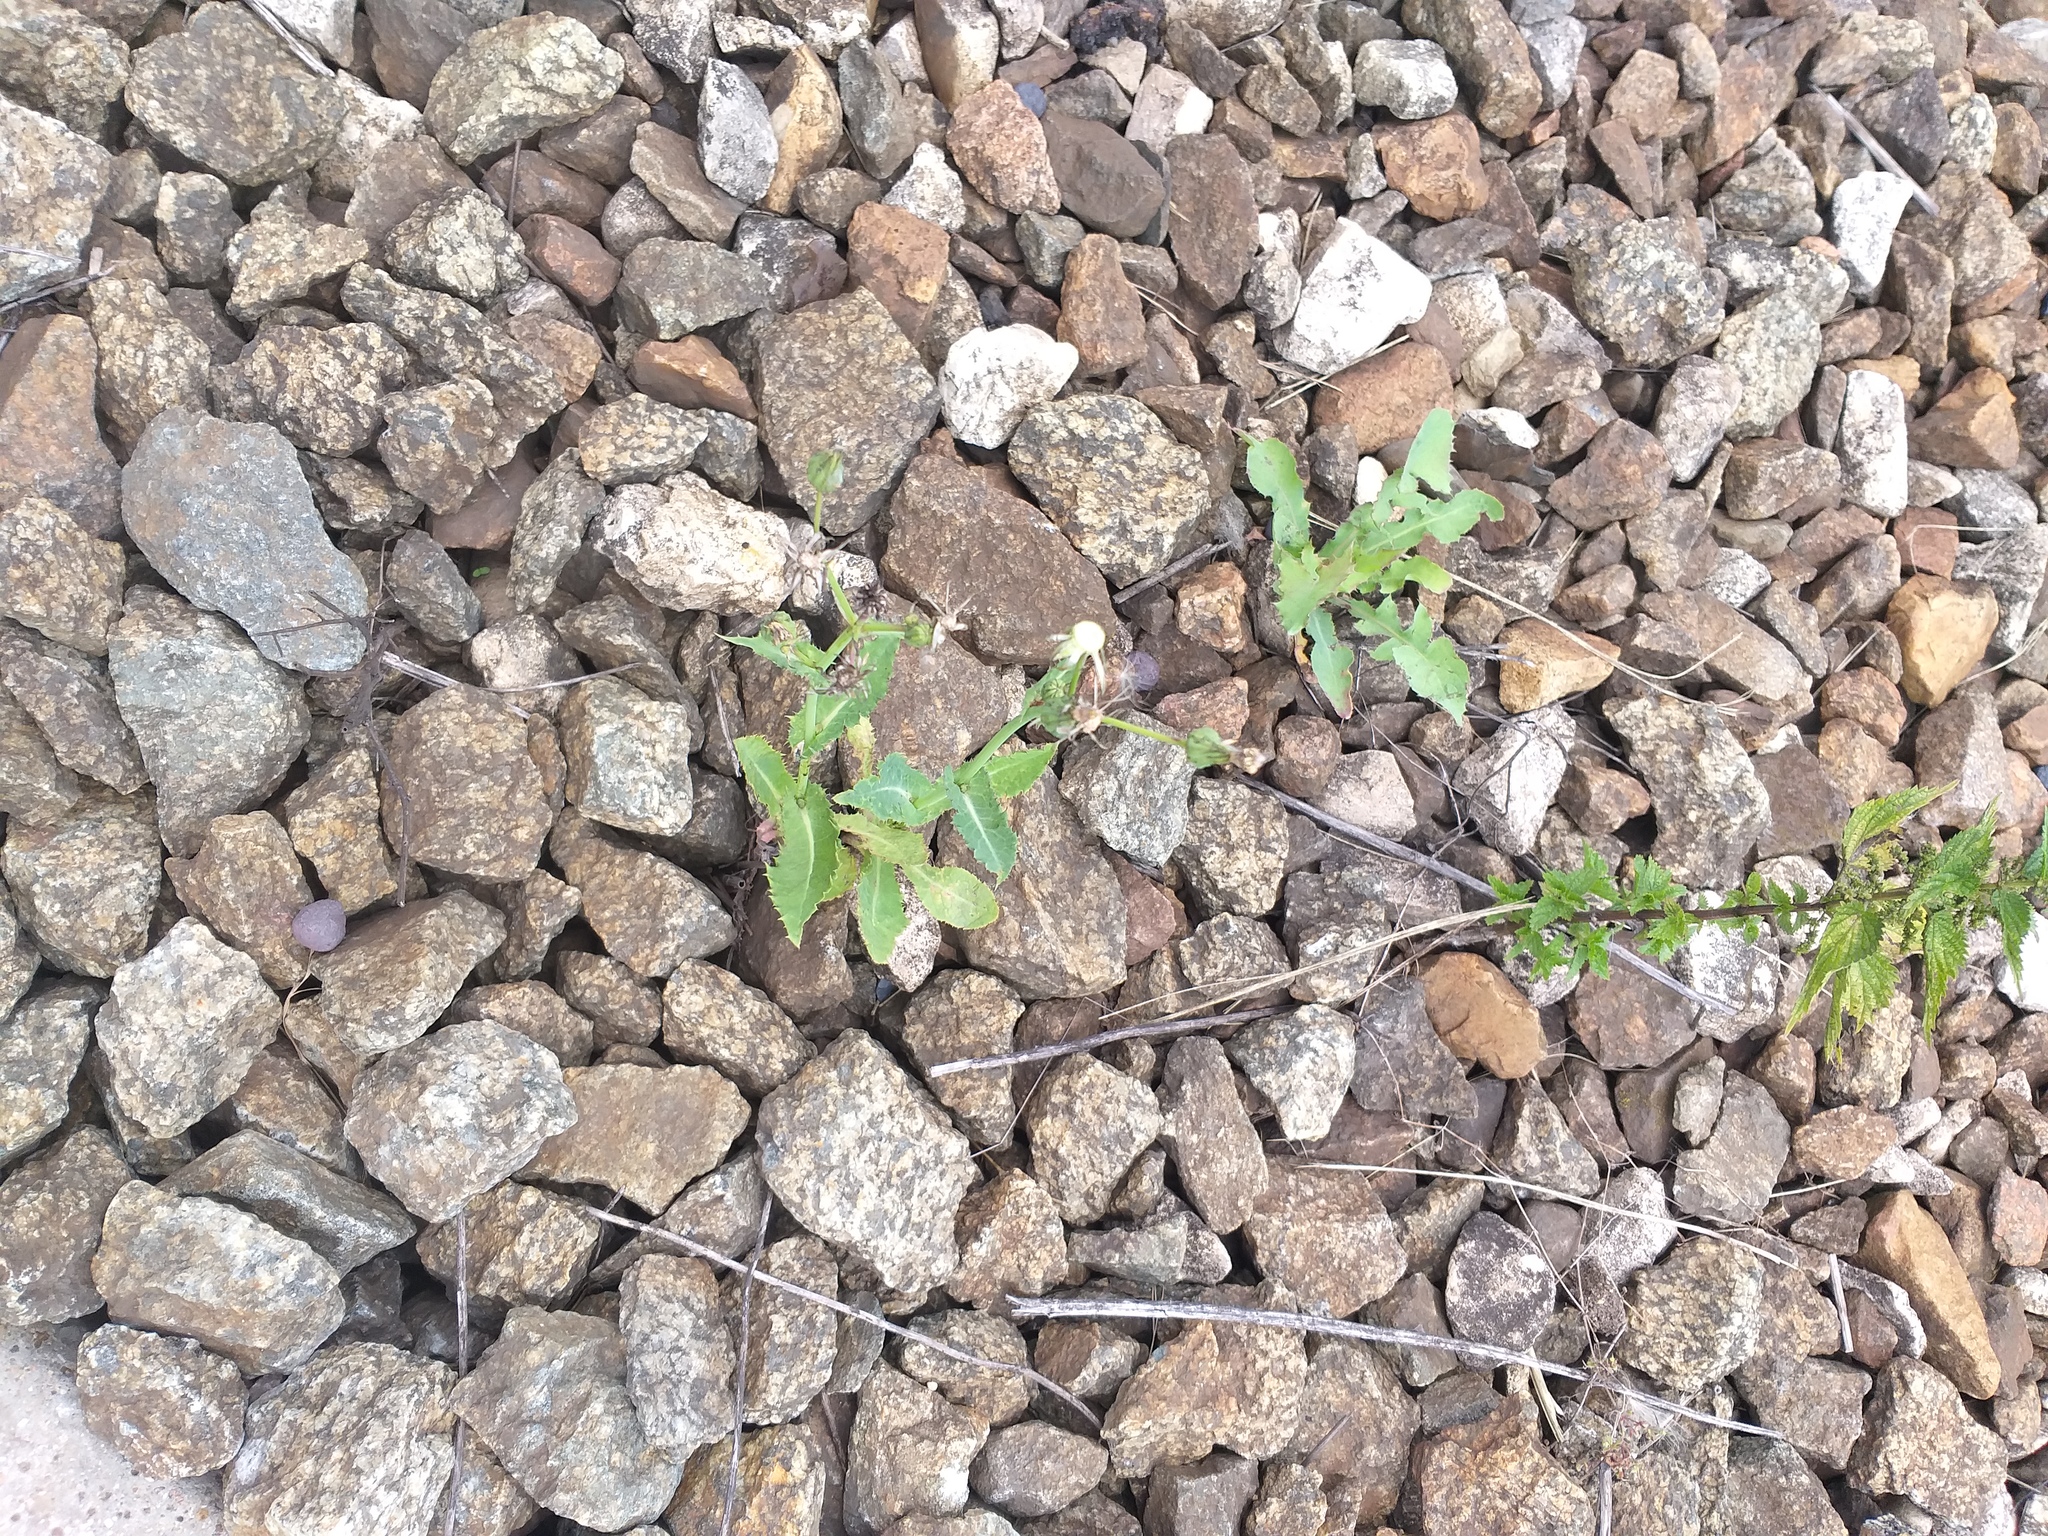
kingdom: Plantae
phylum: Tracheophyta
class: Magnoliopsida
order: Asterales
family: Asteraceae
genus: Sonchus
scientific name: Sonchus asper
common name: Prickly sow-thistle
